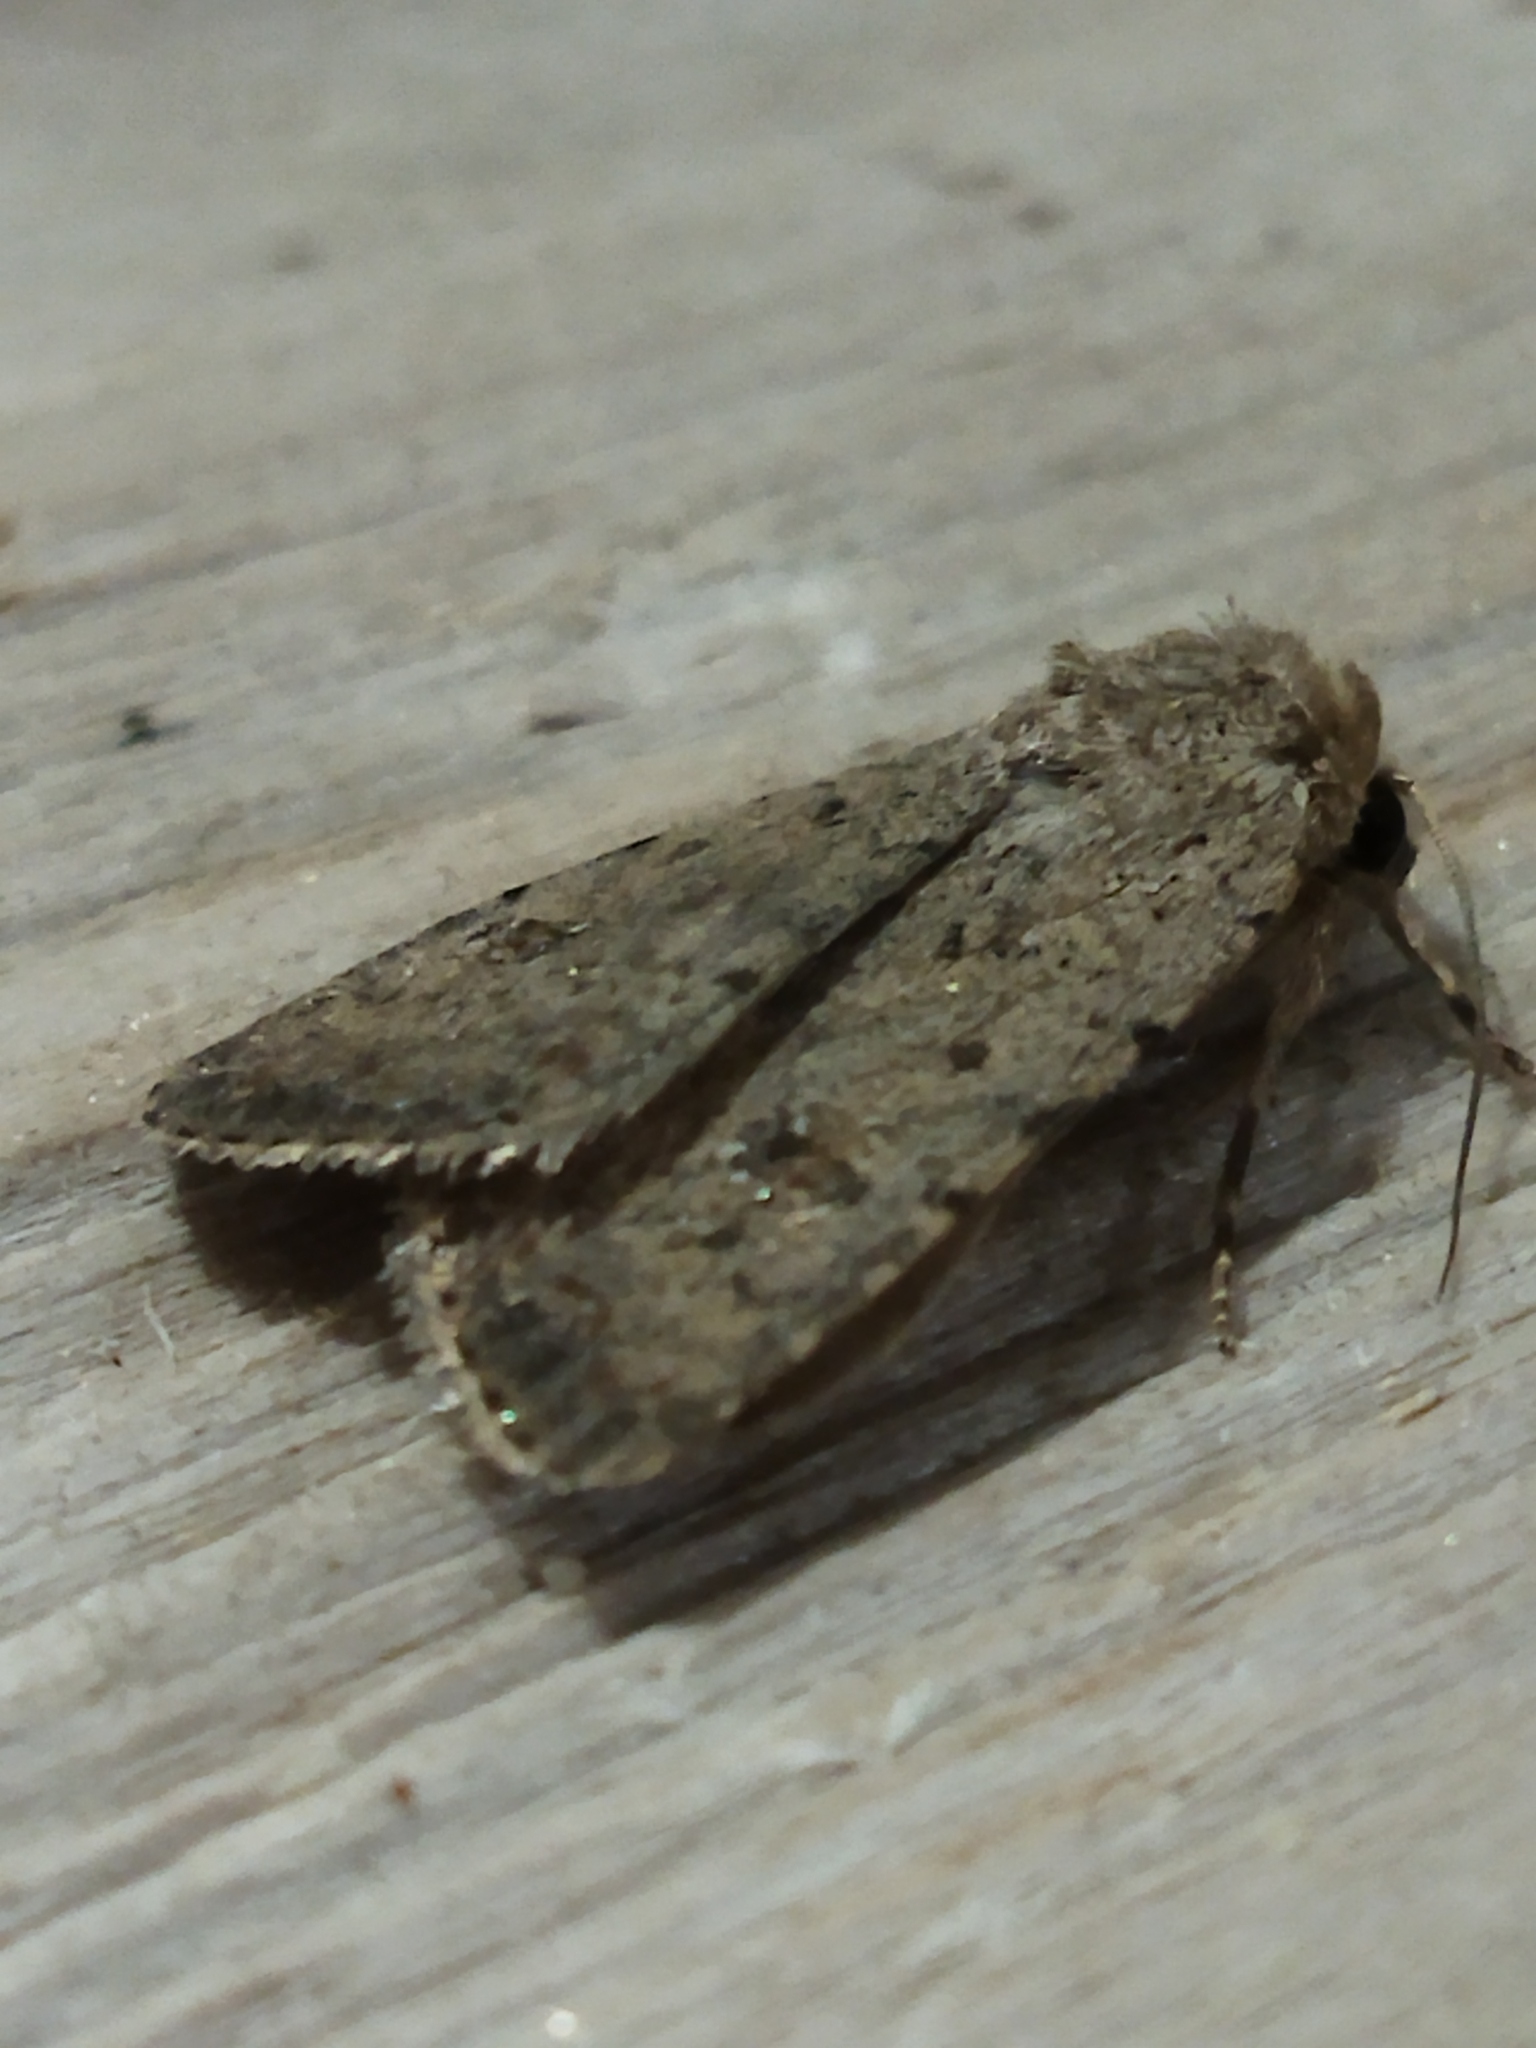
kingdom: Animalia
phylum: Arthropoda
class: Insecta
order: Lepidoptera
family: Noctuidae
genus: Caradrina
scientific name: Caradrina clavipalpis
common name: Pale mottled willow
